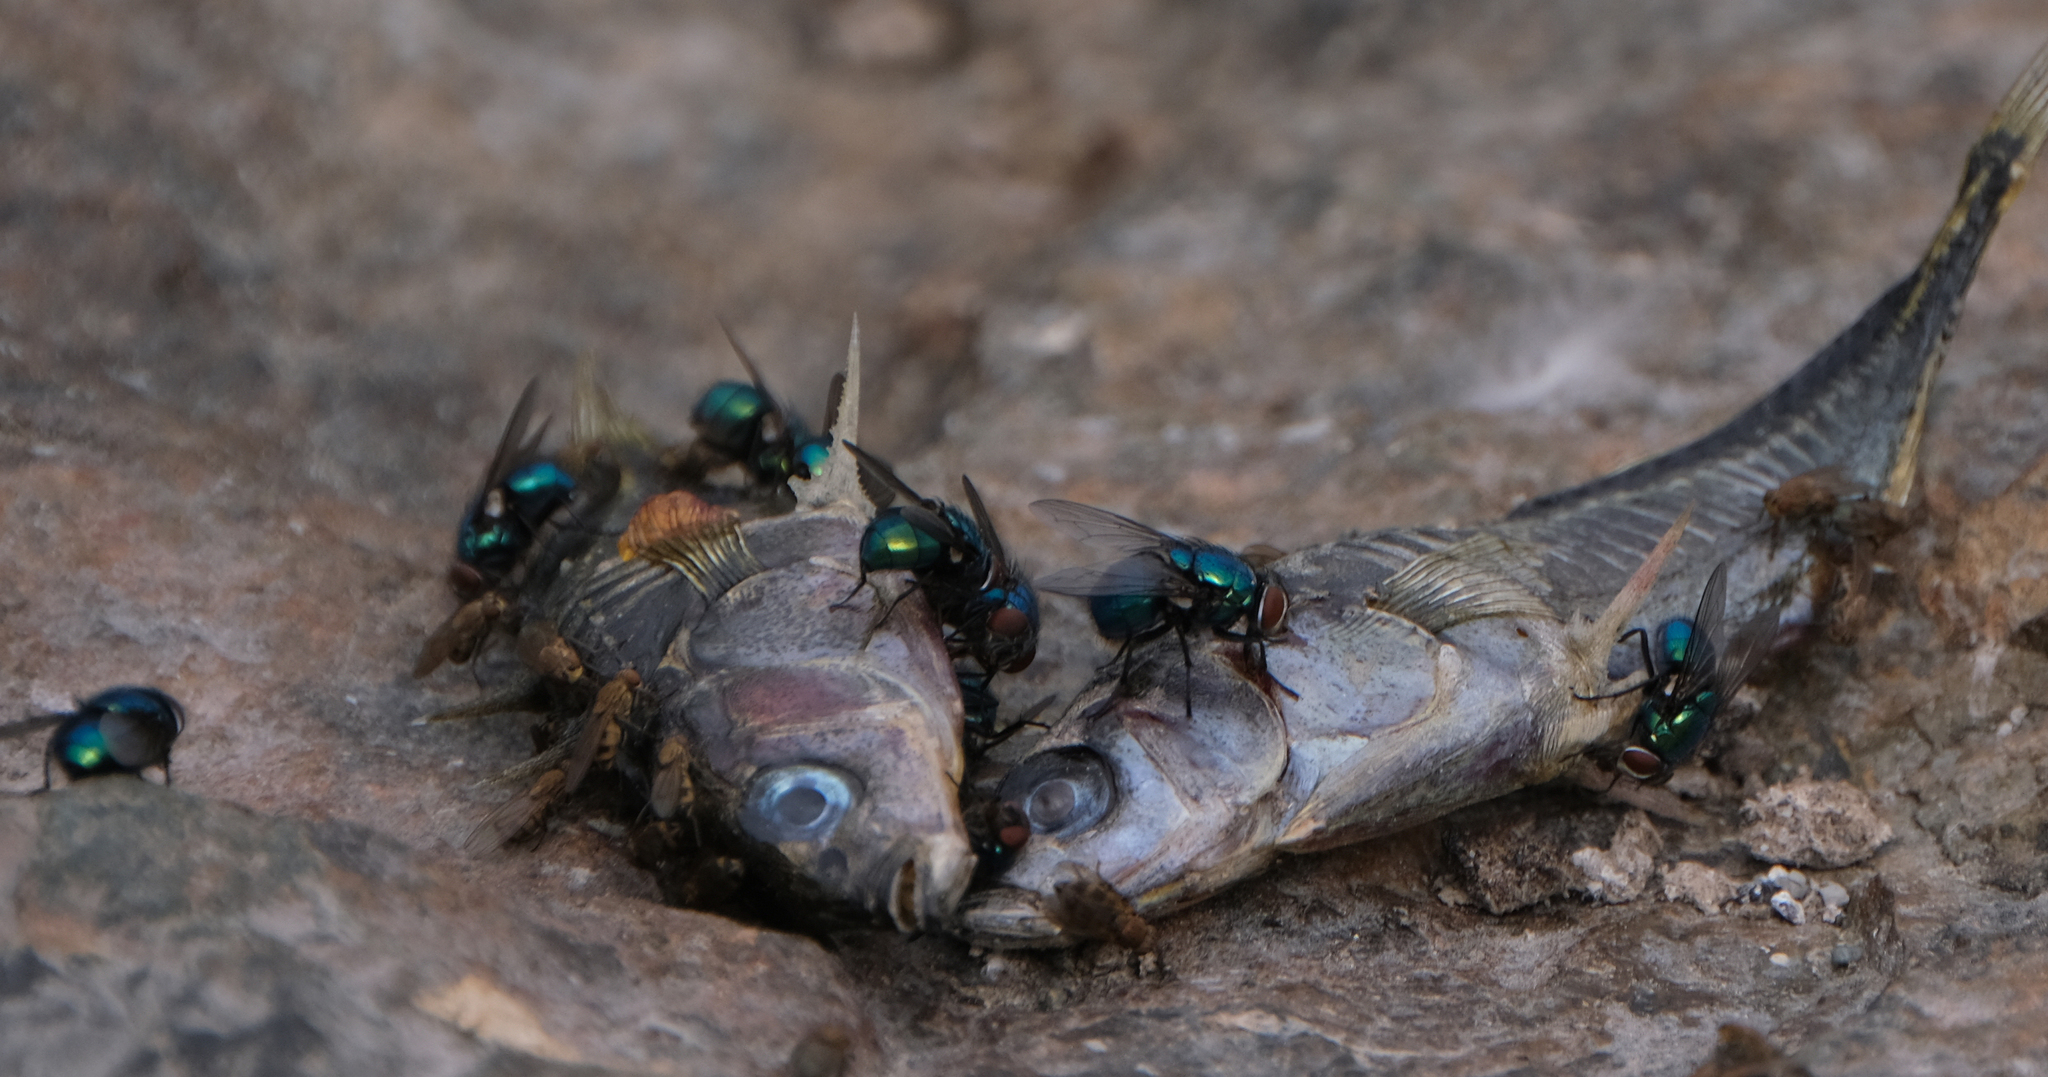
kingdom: Animalia
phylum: Chordata
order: Gasterosteiformes
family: Gasterosteidae
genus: Gasterosteus
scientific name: Gasterosteus aculeatus
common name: Three-spined stickleback
